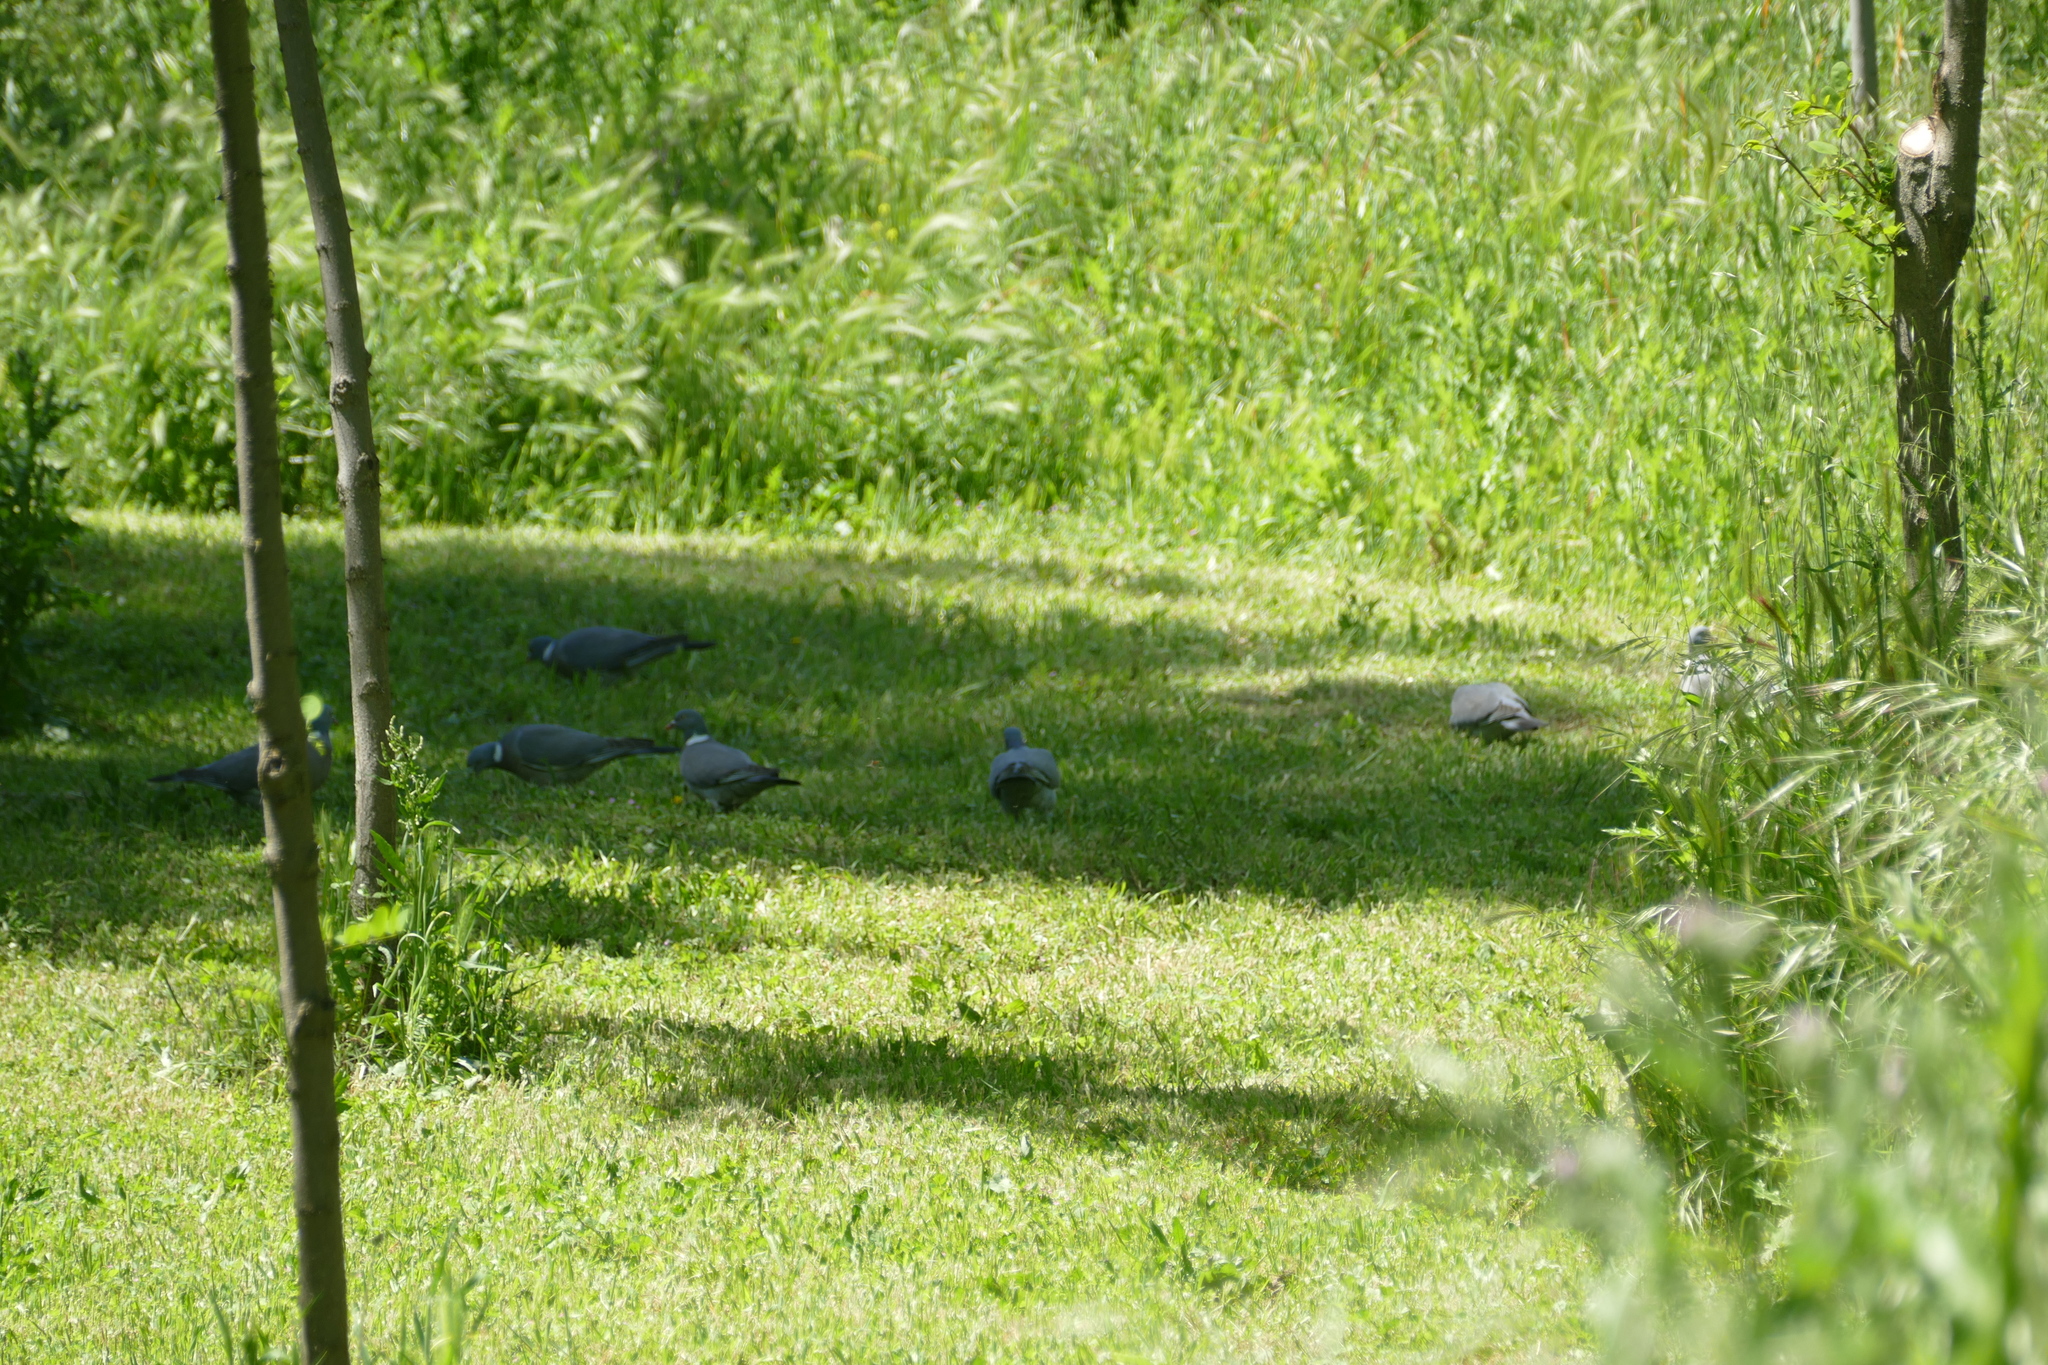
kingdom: Animalia
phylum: Chordata
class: Aves
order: Columbiformes
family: Columbidae
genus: Columba
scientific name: Columba palumbus
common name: Common wood pigeon
